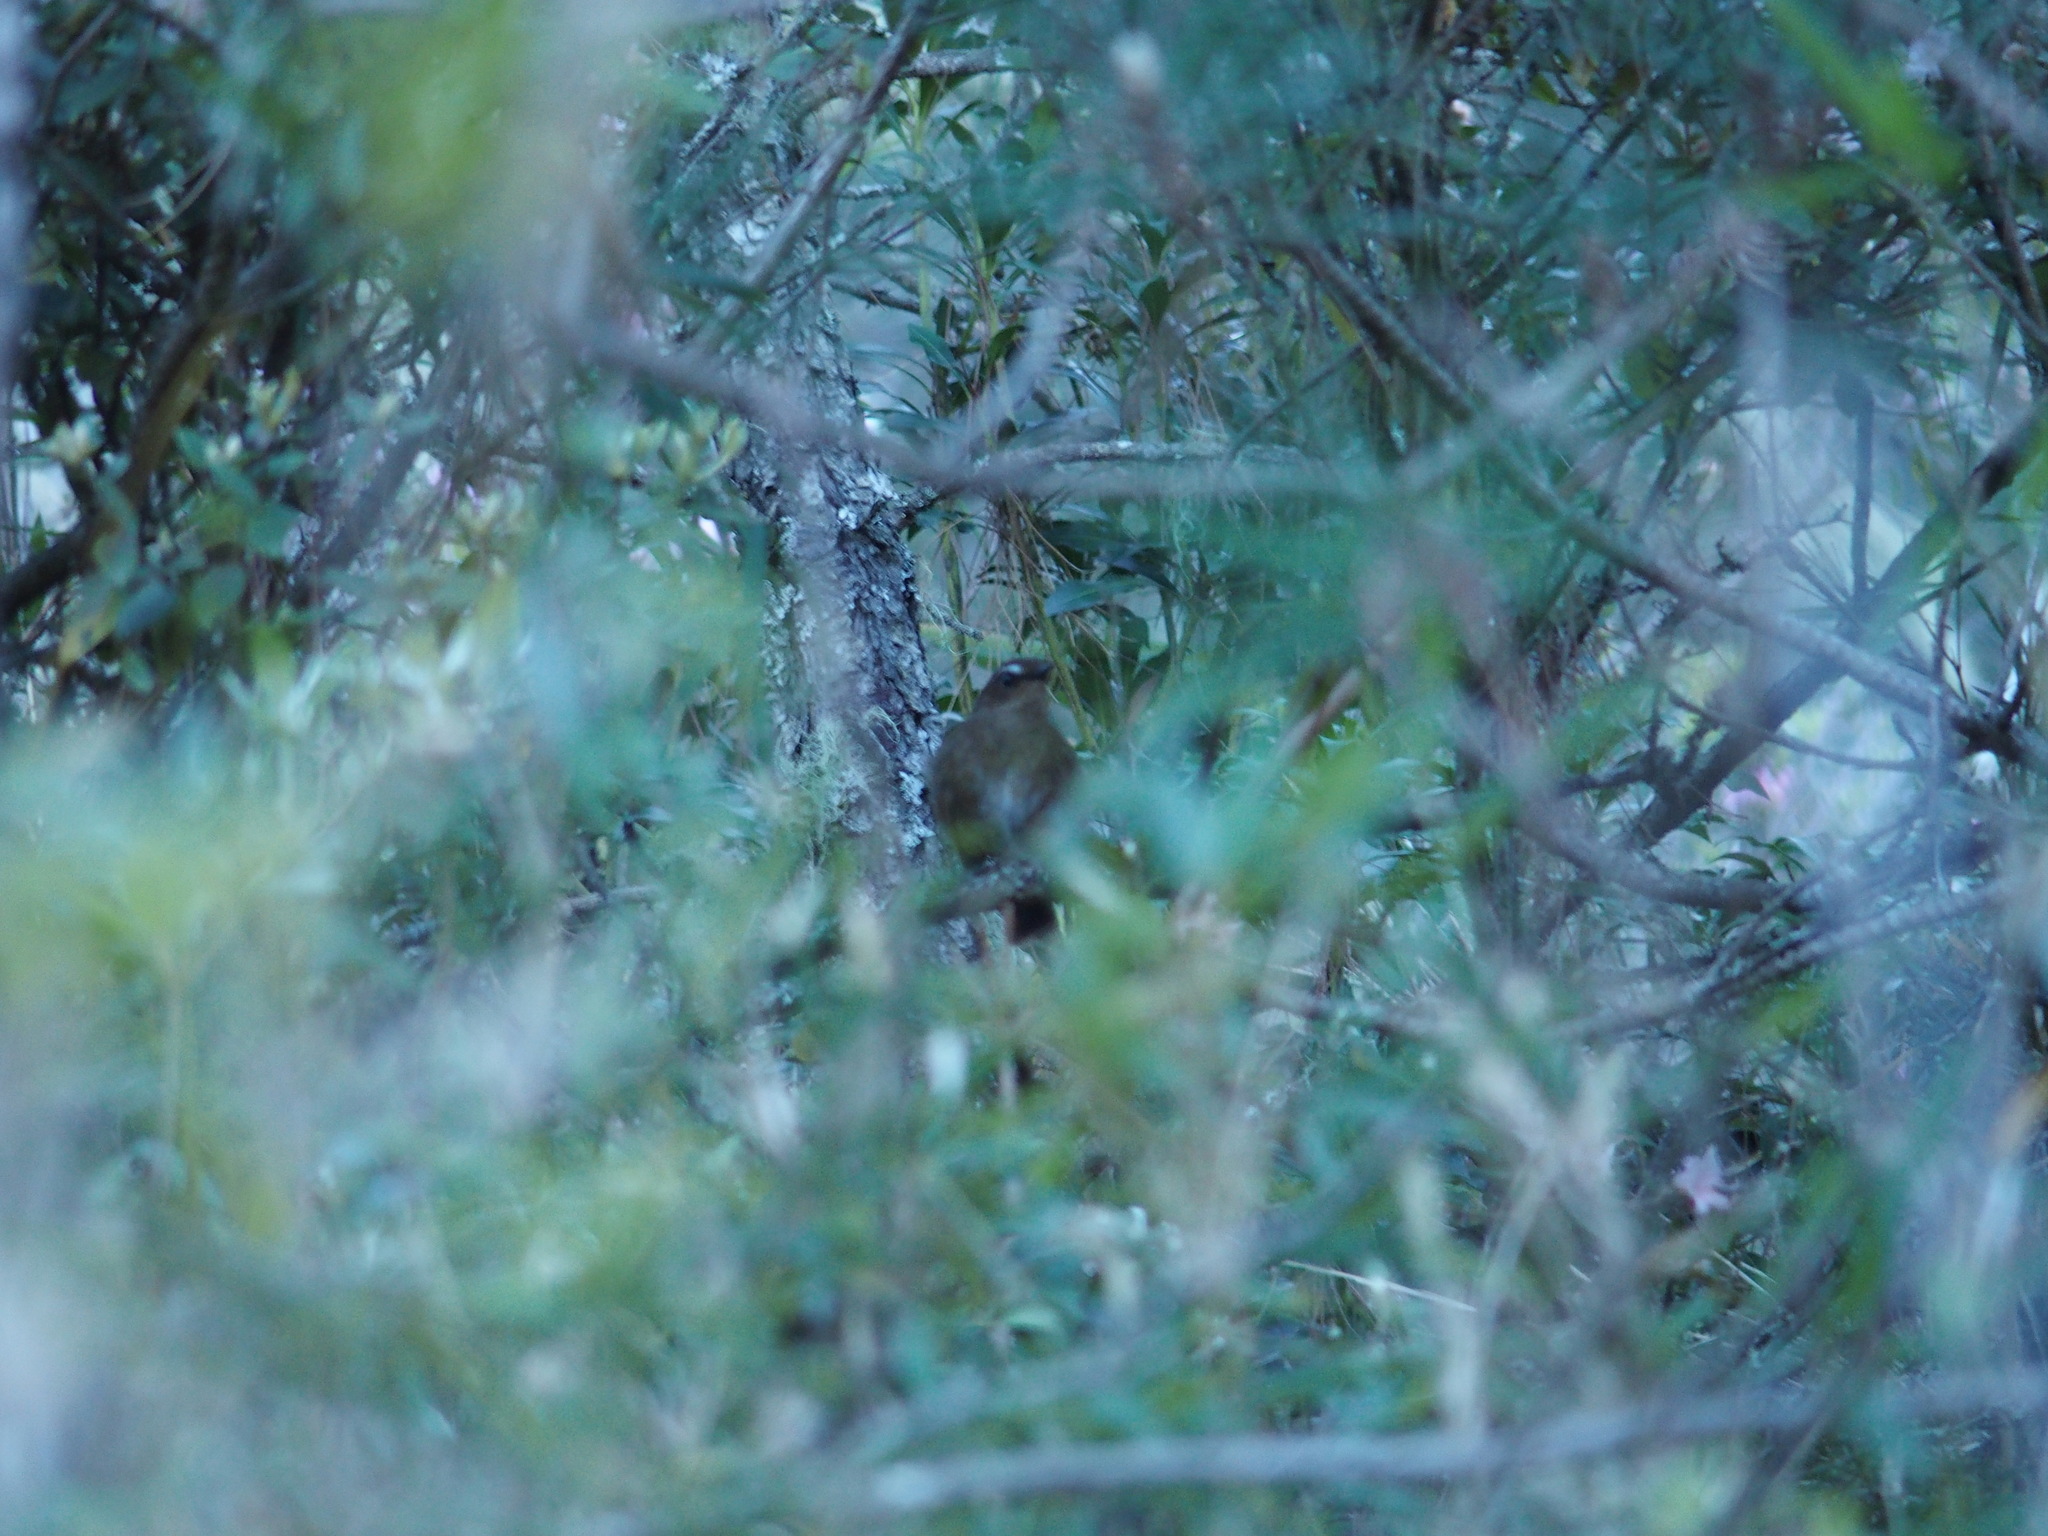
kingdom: Animalia
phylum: Chordata
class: Aves
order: Passeriformes
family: Muscicapidae
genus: Brachypteryx
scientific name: Brachypteryx goodfellowi
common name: Taiwan shortwing
